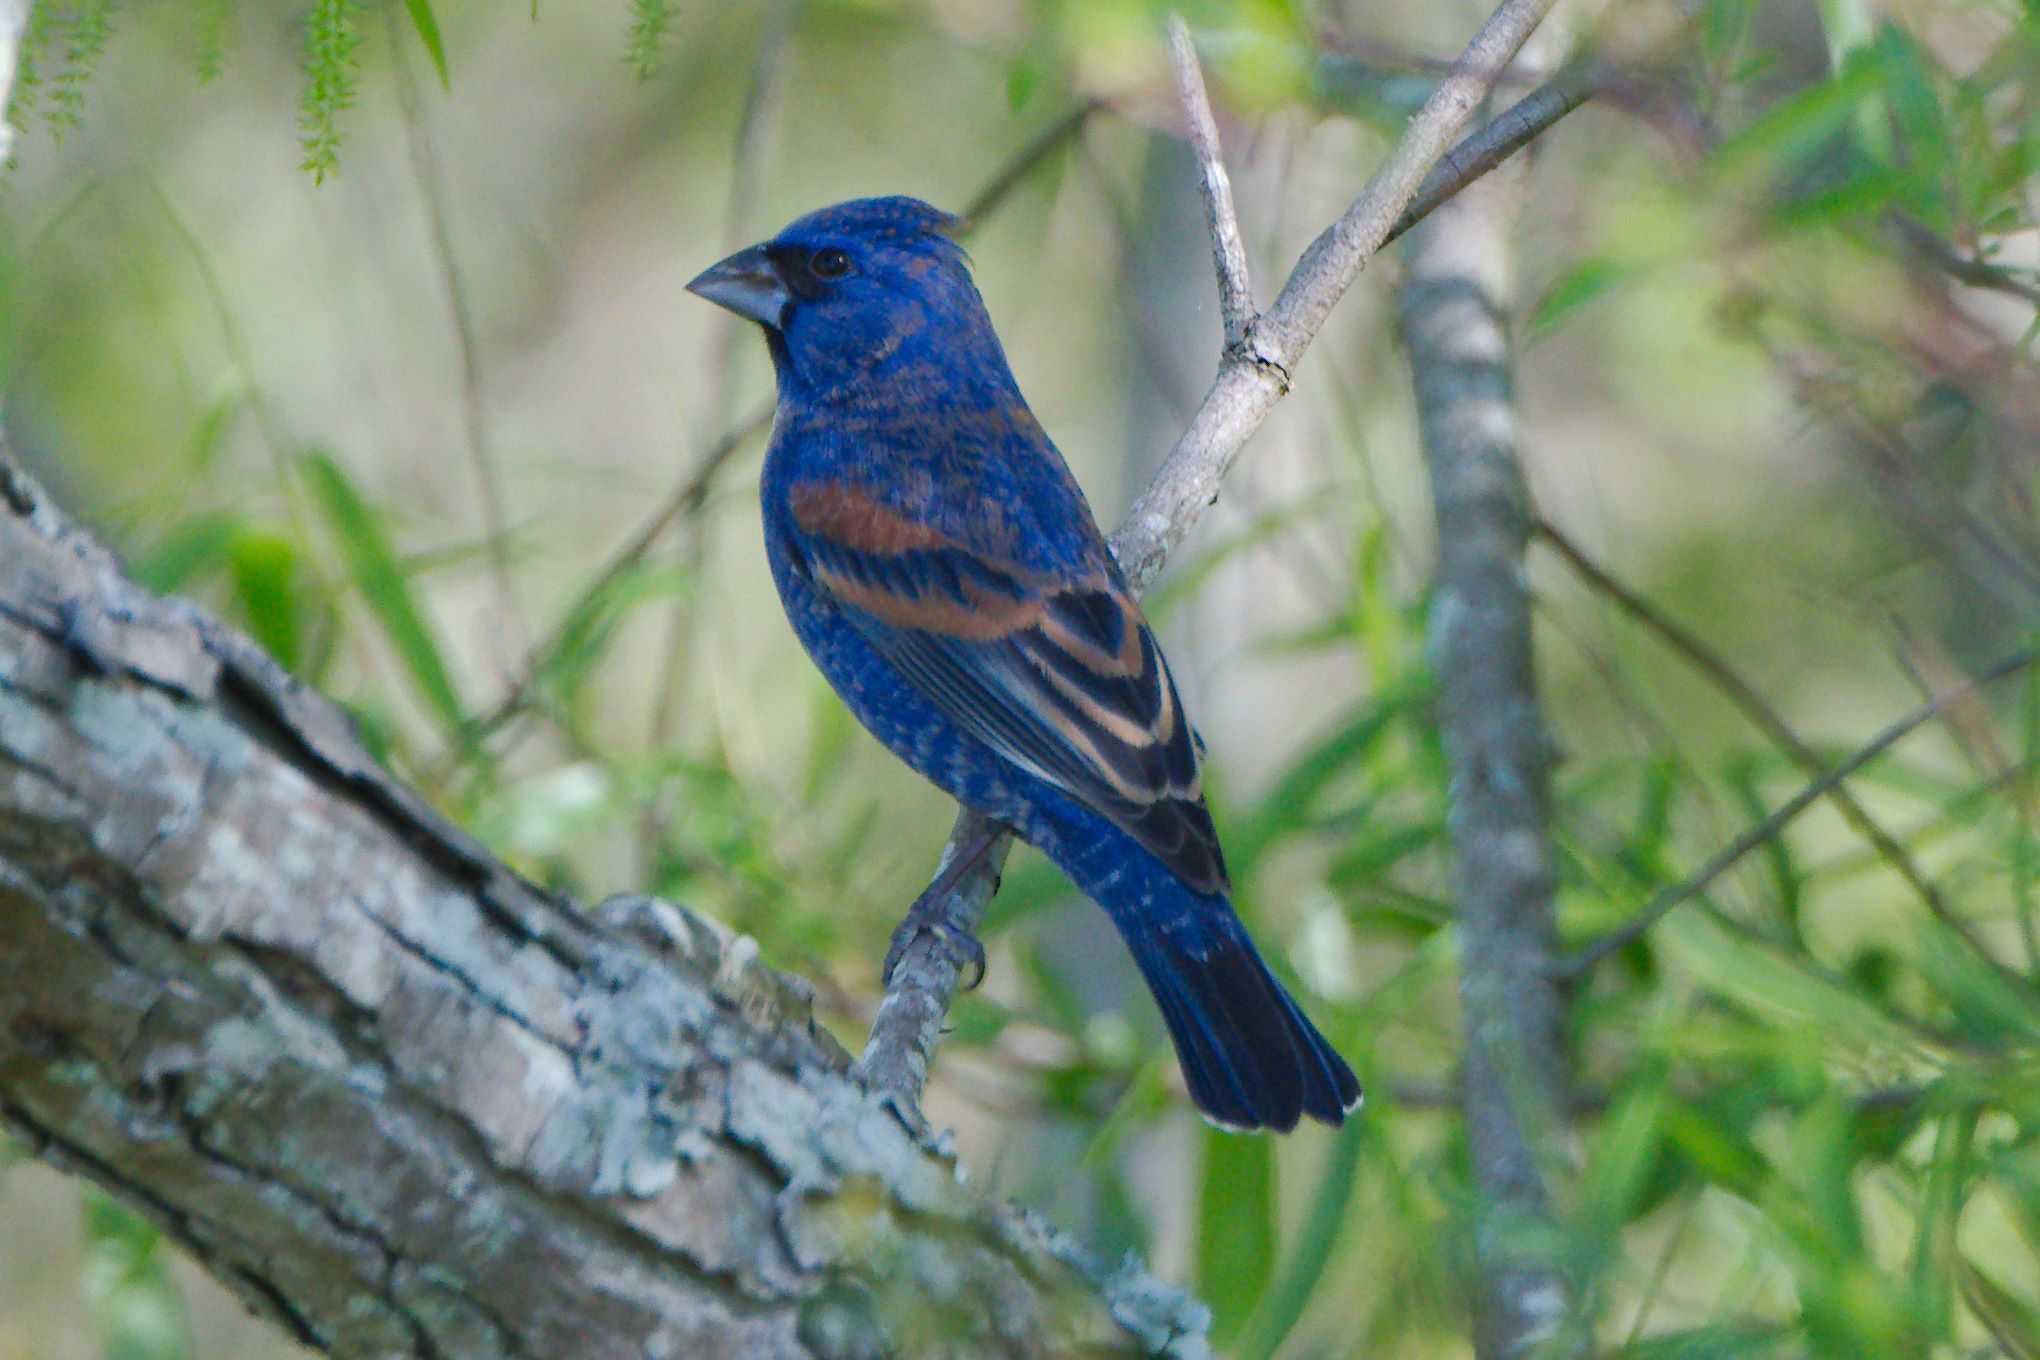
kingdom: Animalia
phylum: Chordata
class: Aves
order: Passeriformes
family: Cardinalidae
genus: Passerina
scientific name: Passerina caerulea
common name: Blue grosbeak
